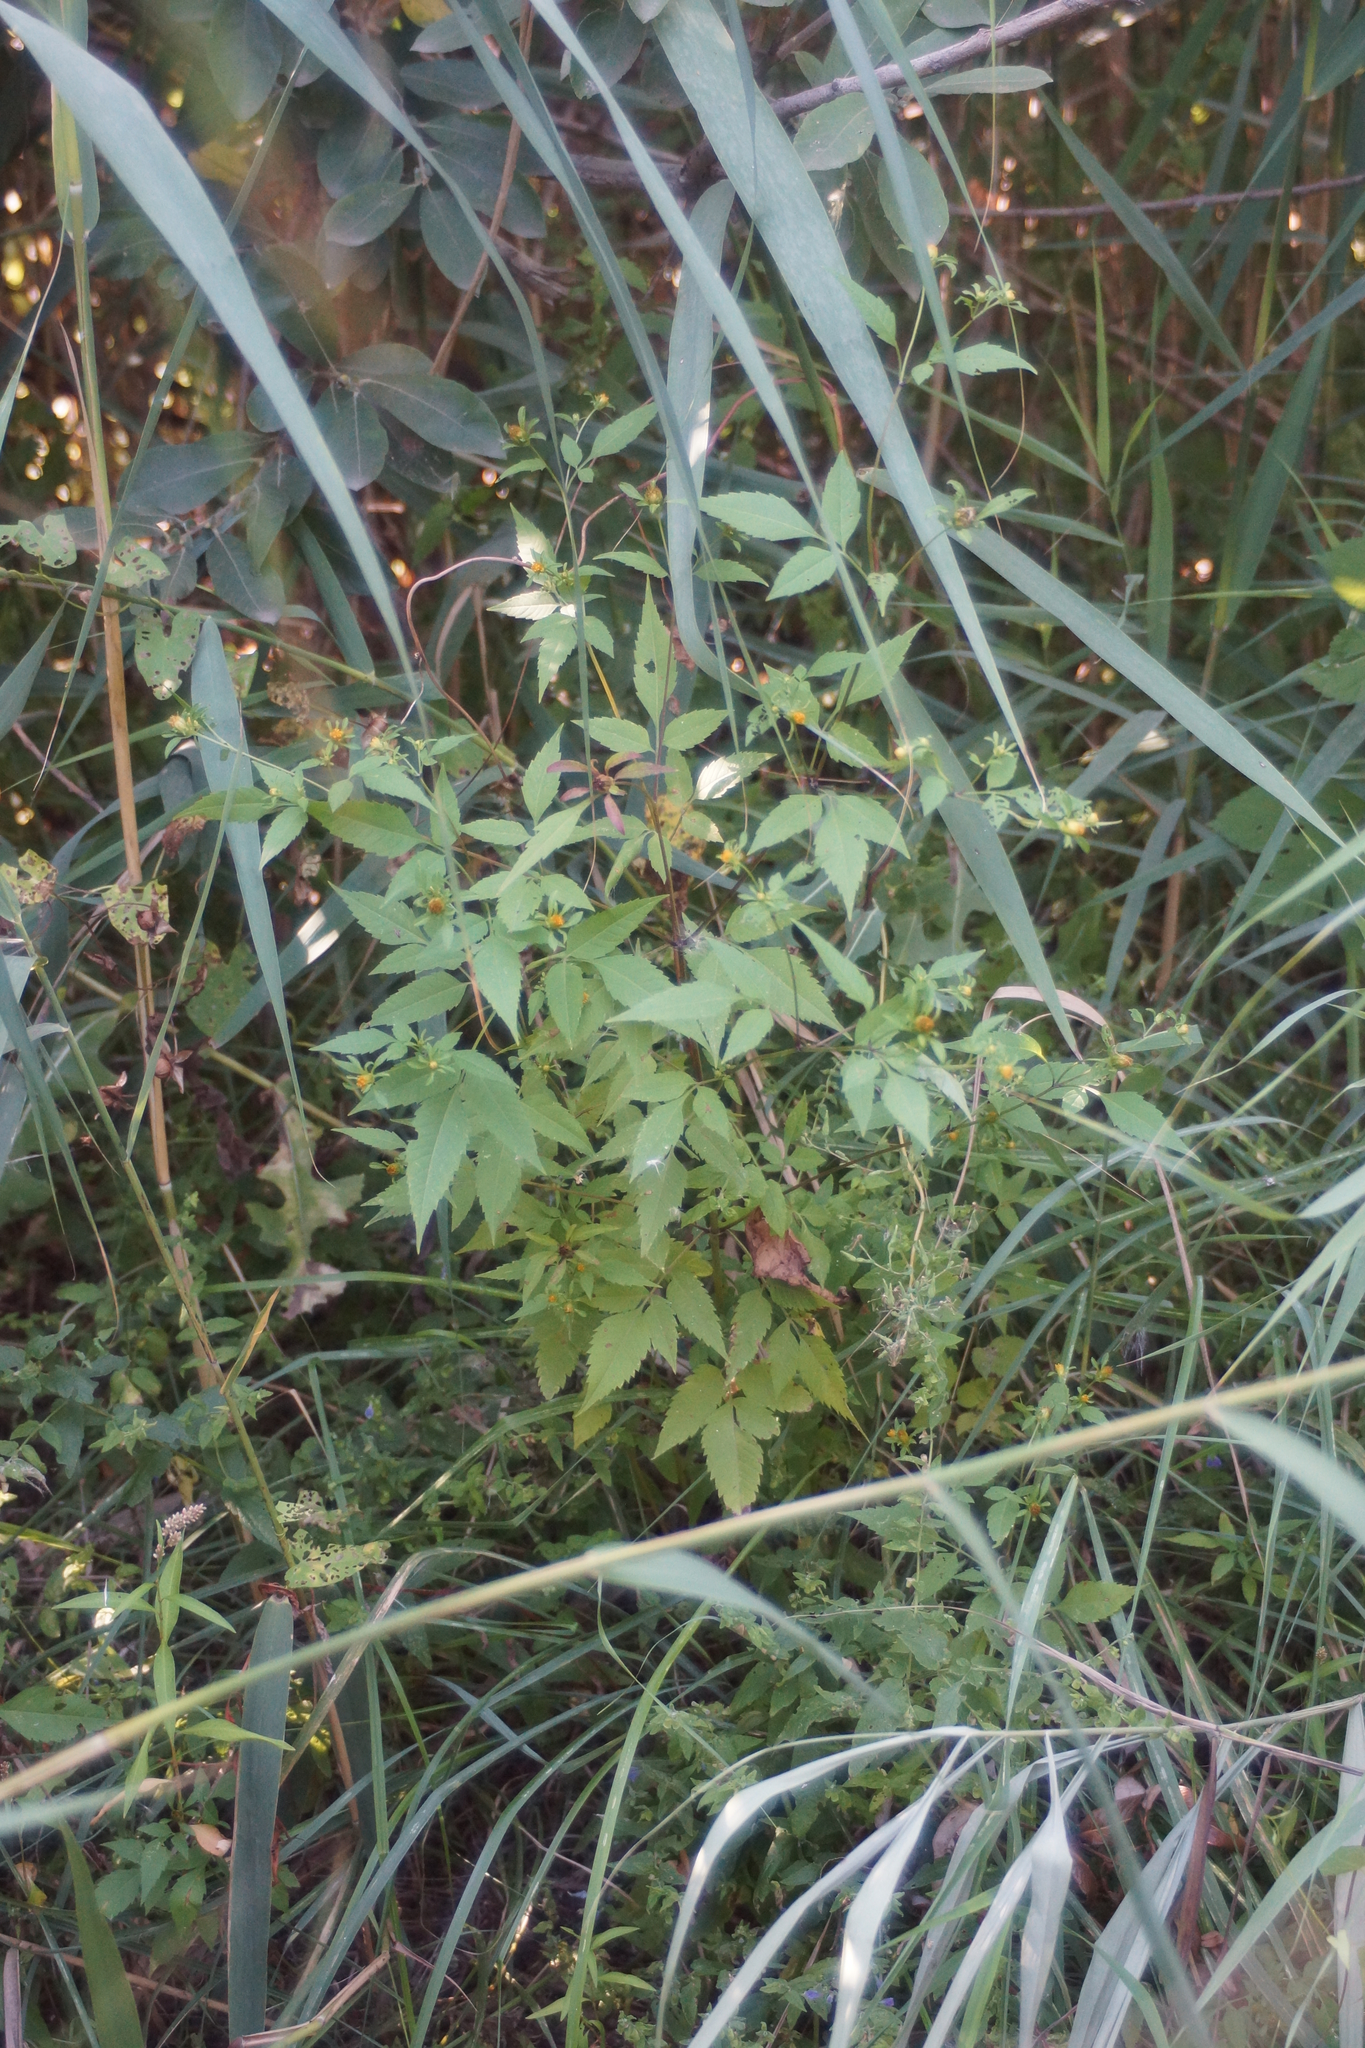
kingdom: Plantae
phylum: Tracheophyta
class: Magnoliopsida
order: Asterales
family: Asteraceae
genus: Bidens
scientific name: Bidens frondosa
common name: Beggarticks
